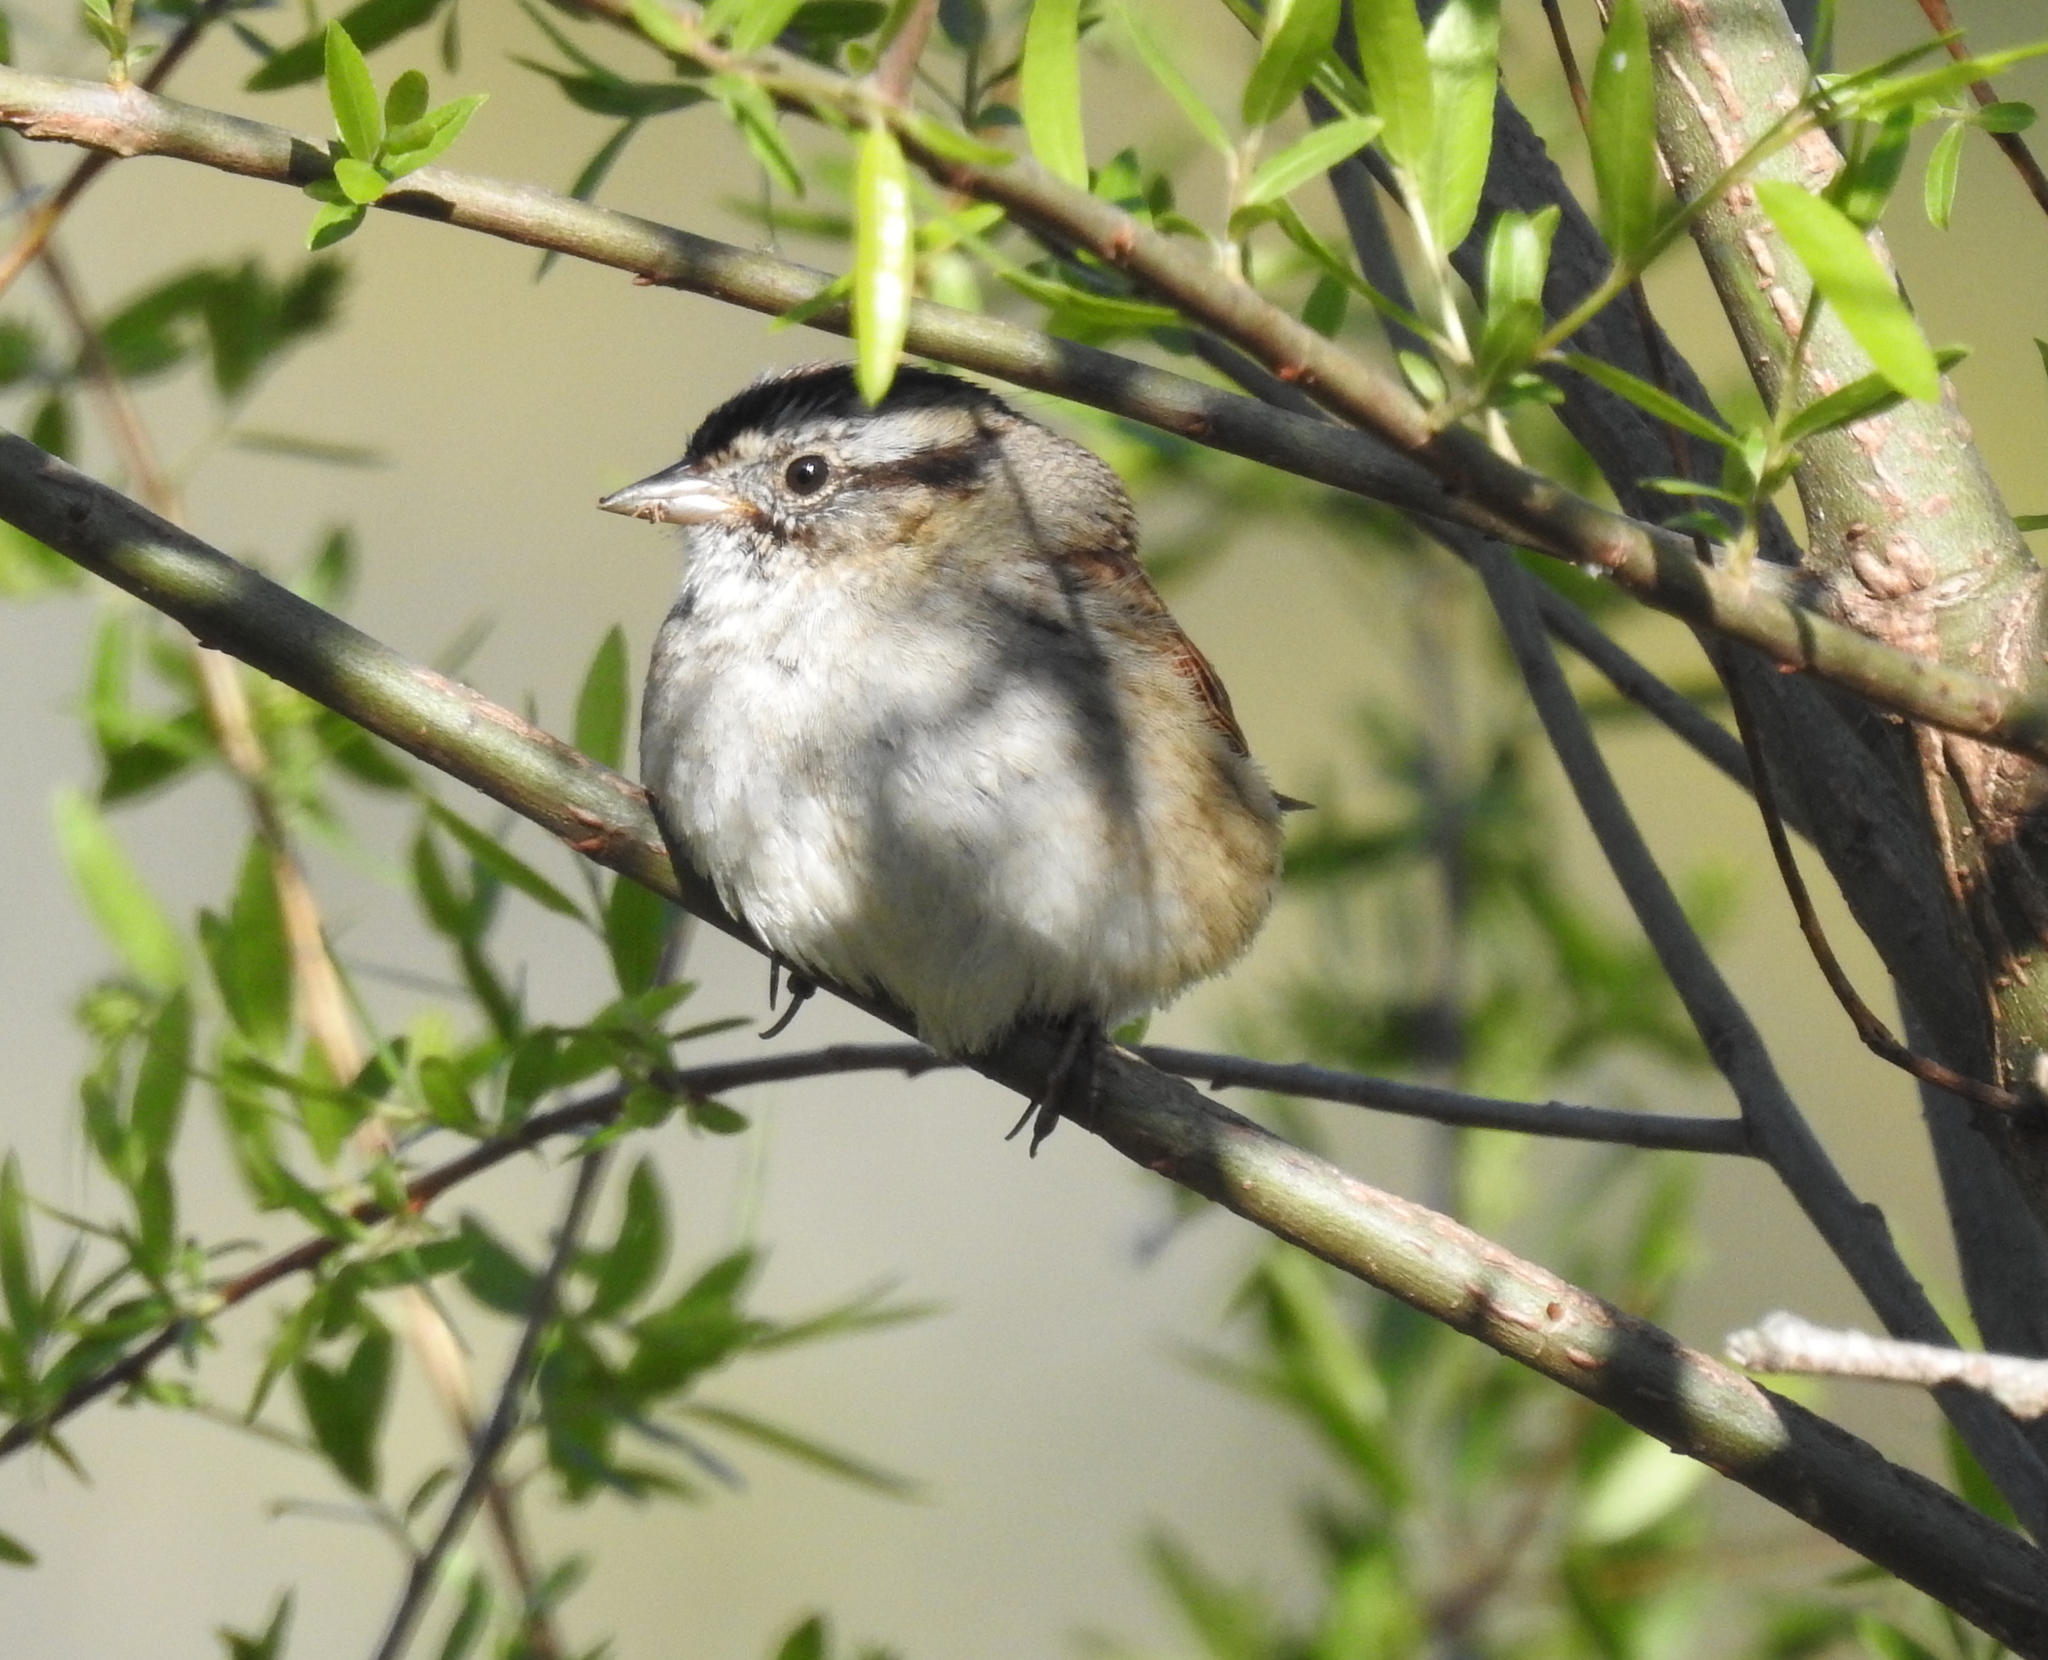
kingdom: Animalia
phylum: Chordata
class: Aves
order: Passeriformes
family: Passerellidae
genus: Melospiza
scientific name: Melospiza georgiana
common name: Swamp sparrow
